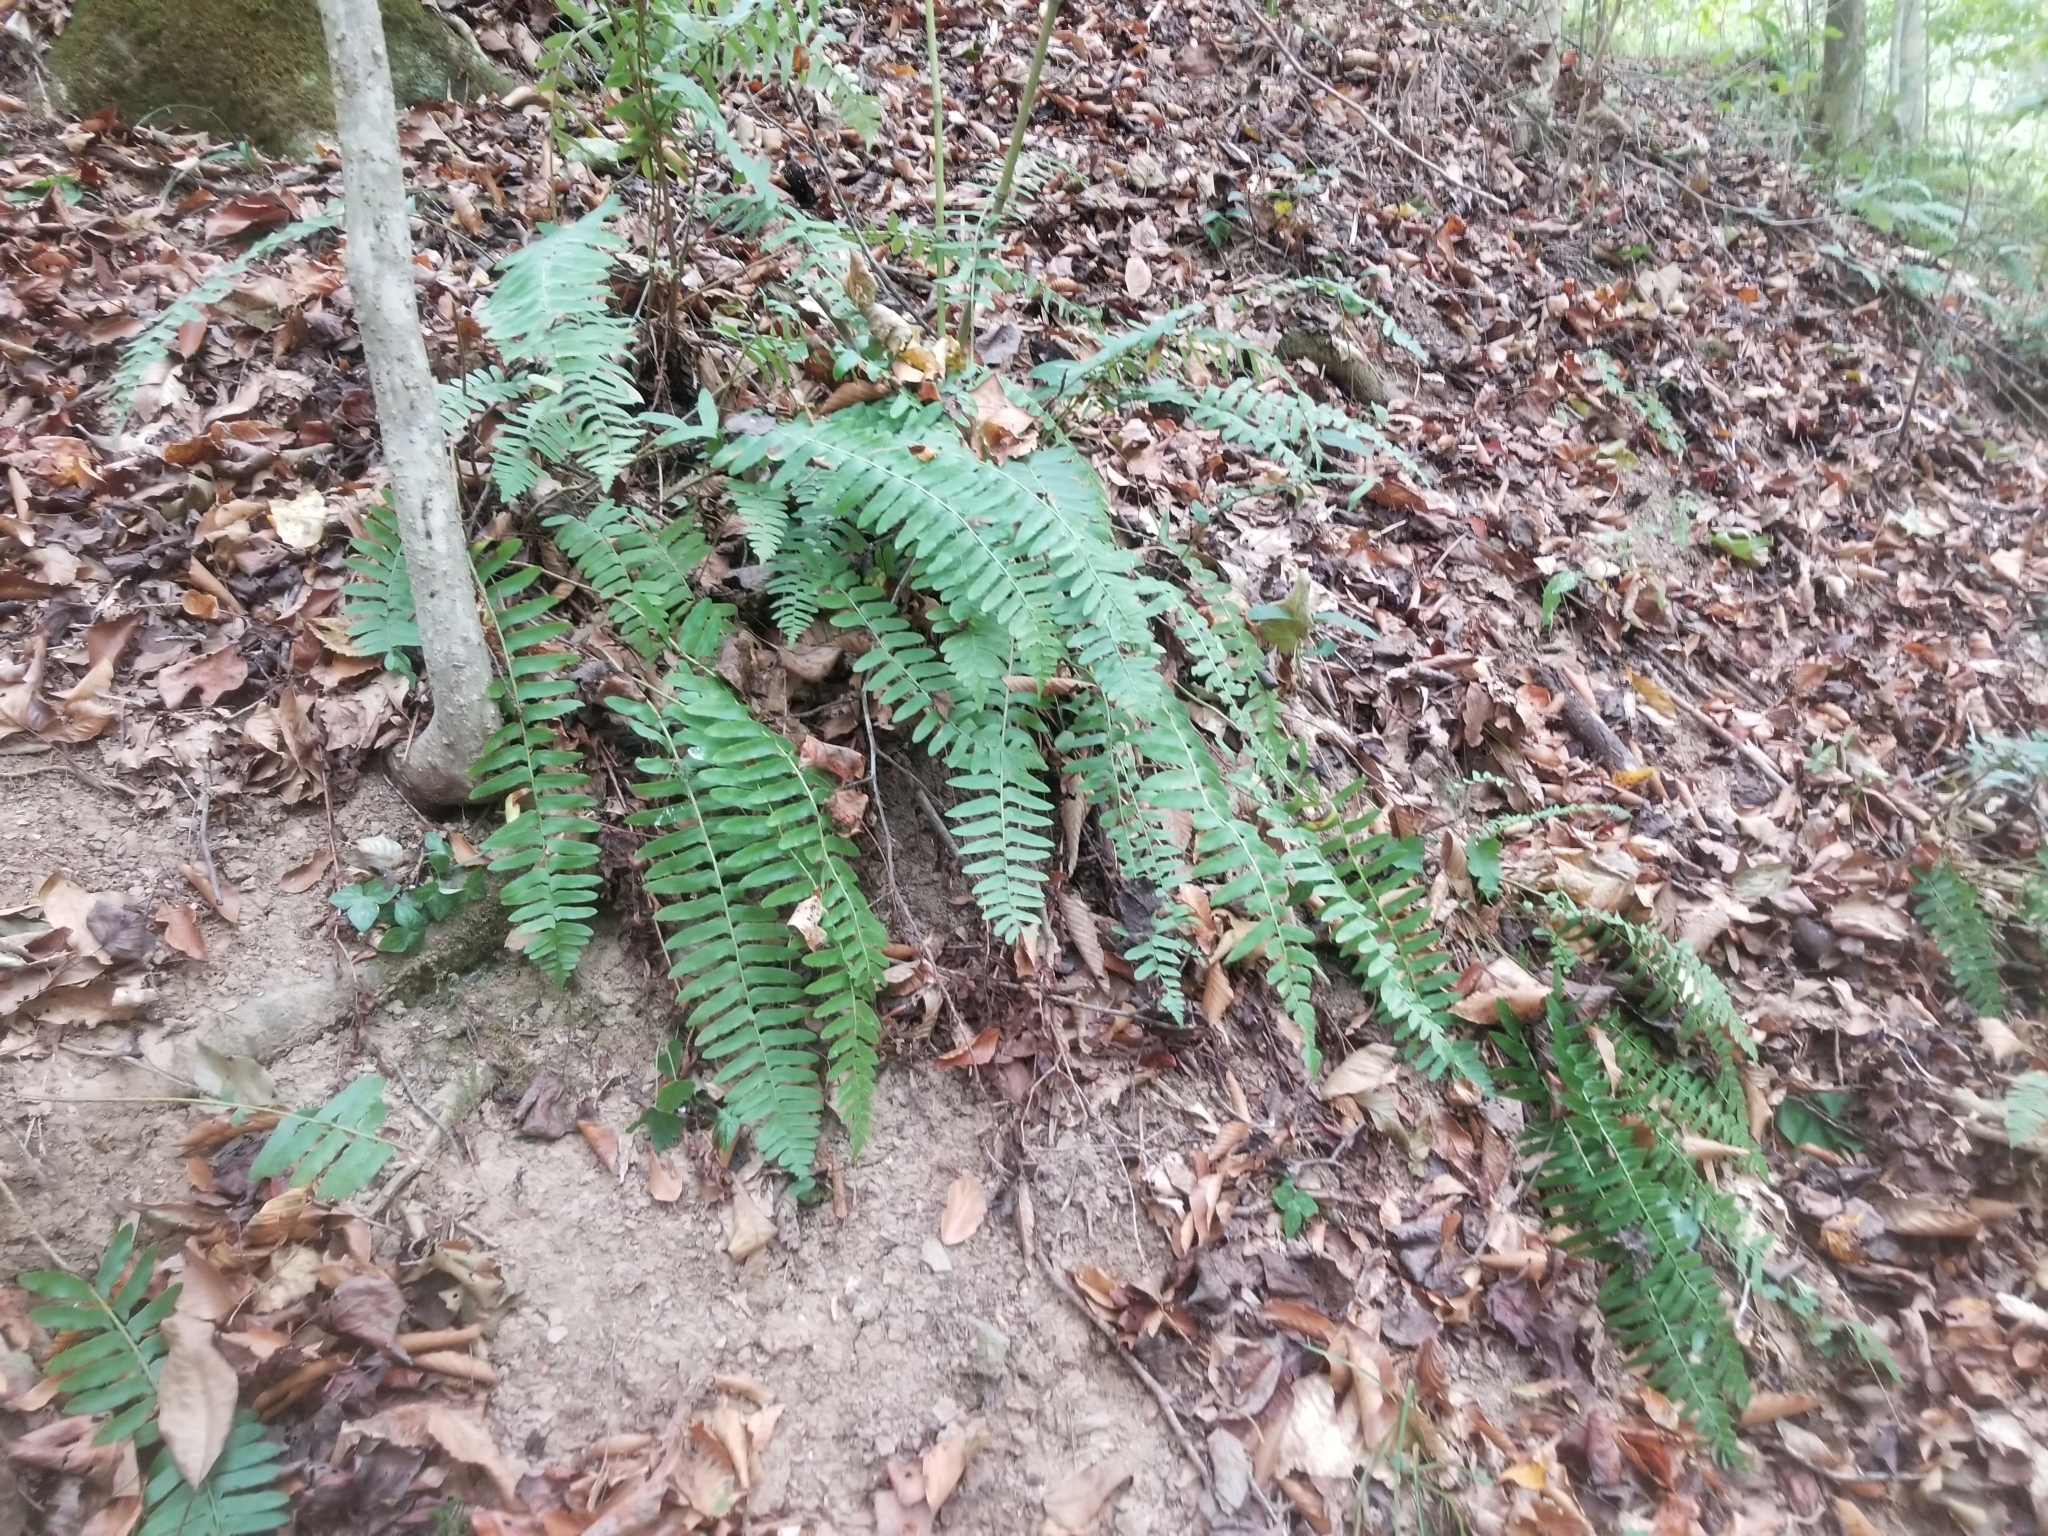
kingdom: Plantae
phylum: Tracheophyta
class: Polypodiopsida
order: Polypodiales
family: Dryopteridaceae
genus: Polystichum
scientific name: Polystichum acrostichoides
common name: Christmas fern
